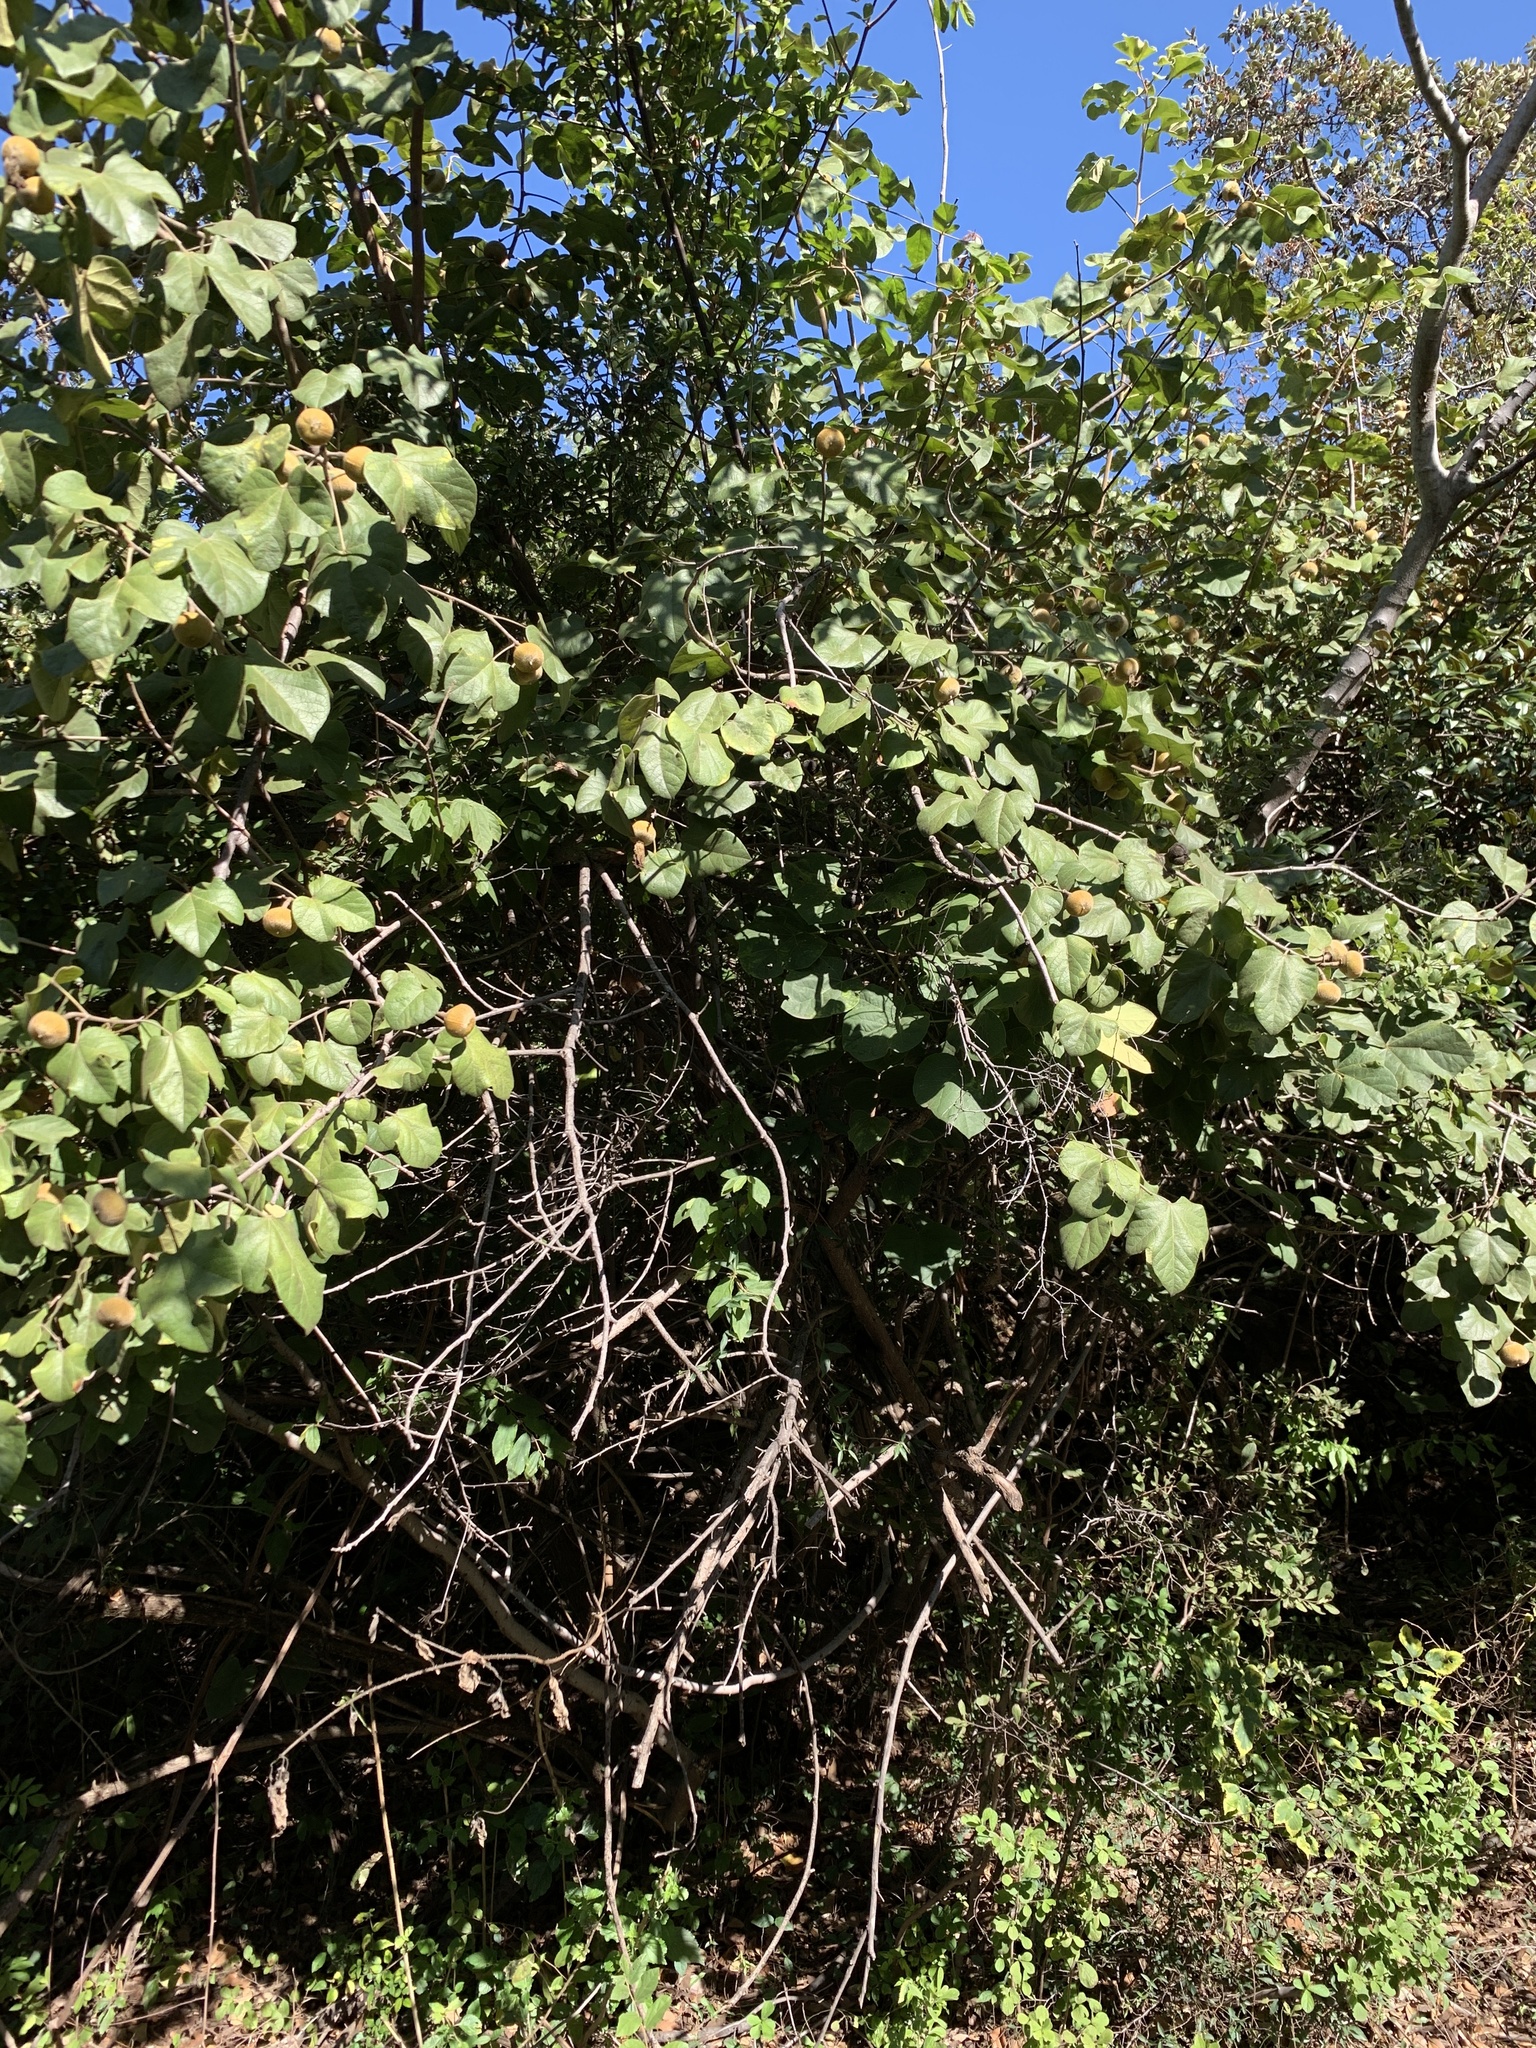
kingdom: Plantae
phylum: Tracheophyta
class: Magnoliopsida
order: Solanales
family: Solanaceae
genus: Solanum
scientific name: Solanum seaforthianum
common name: Brazilian nightshade
